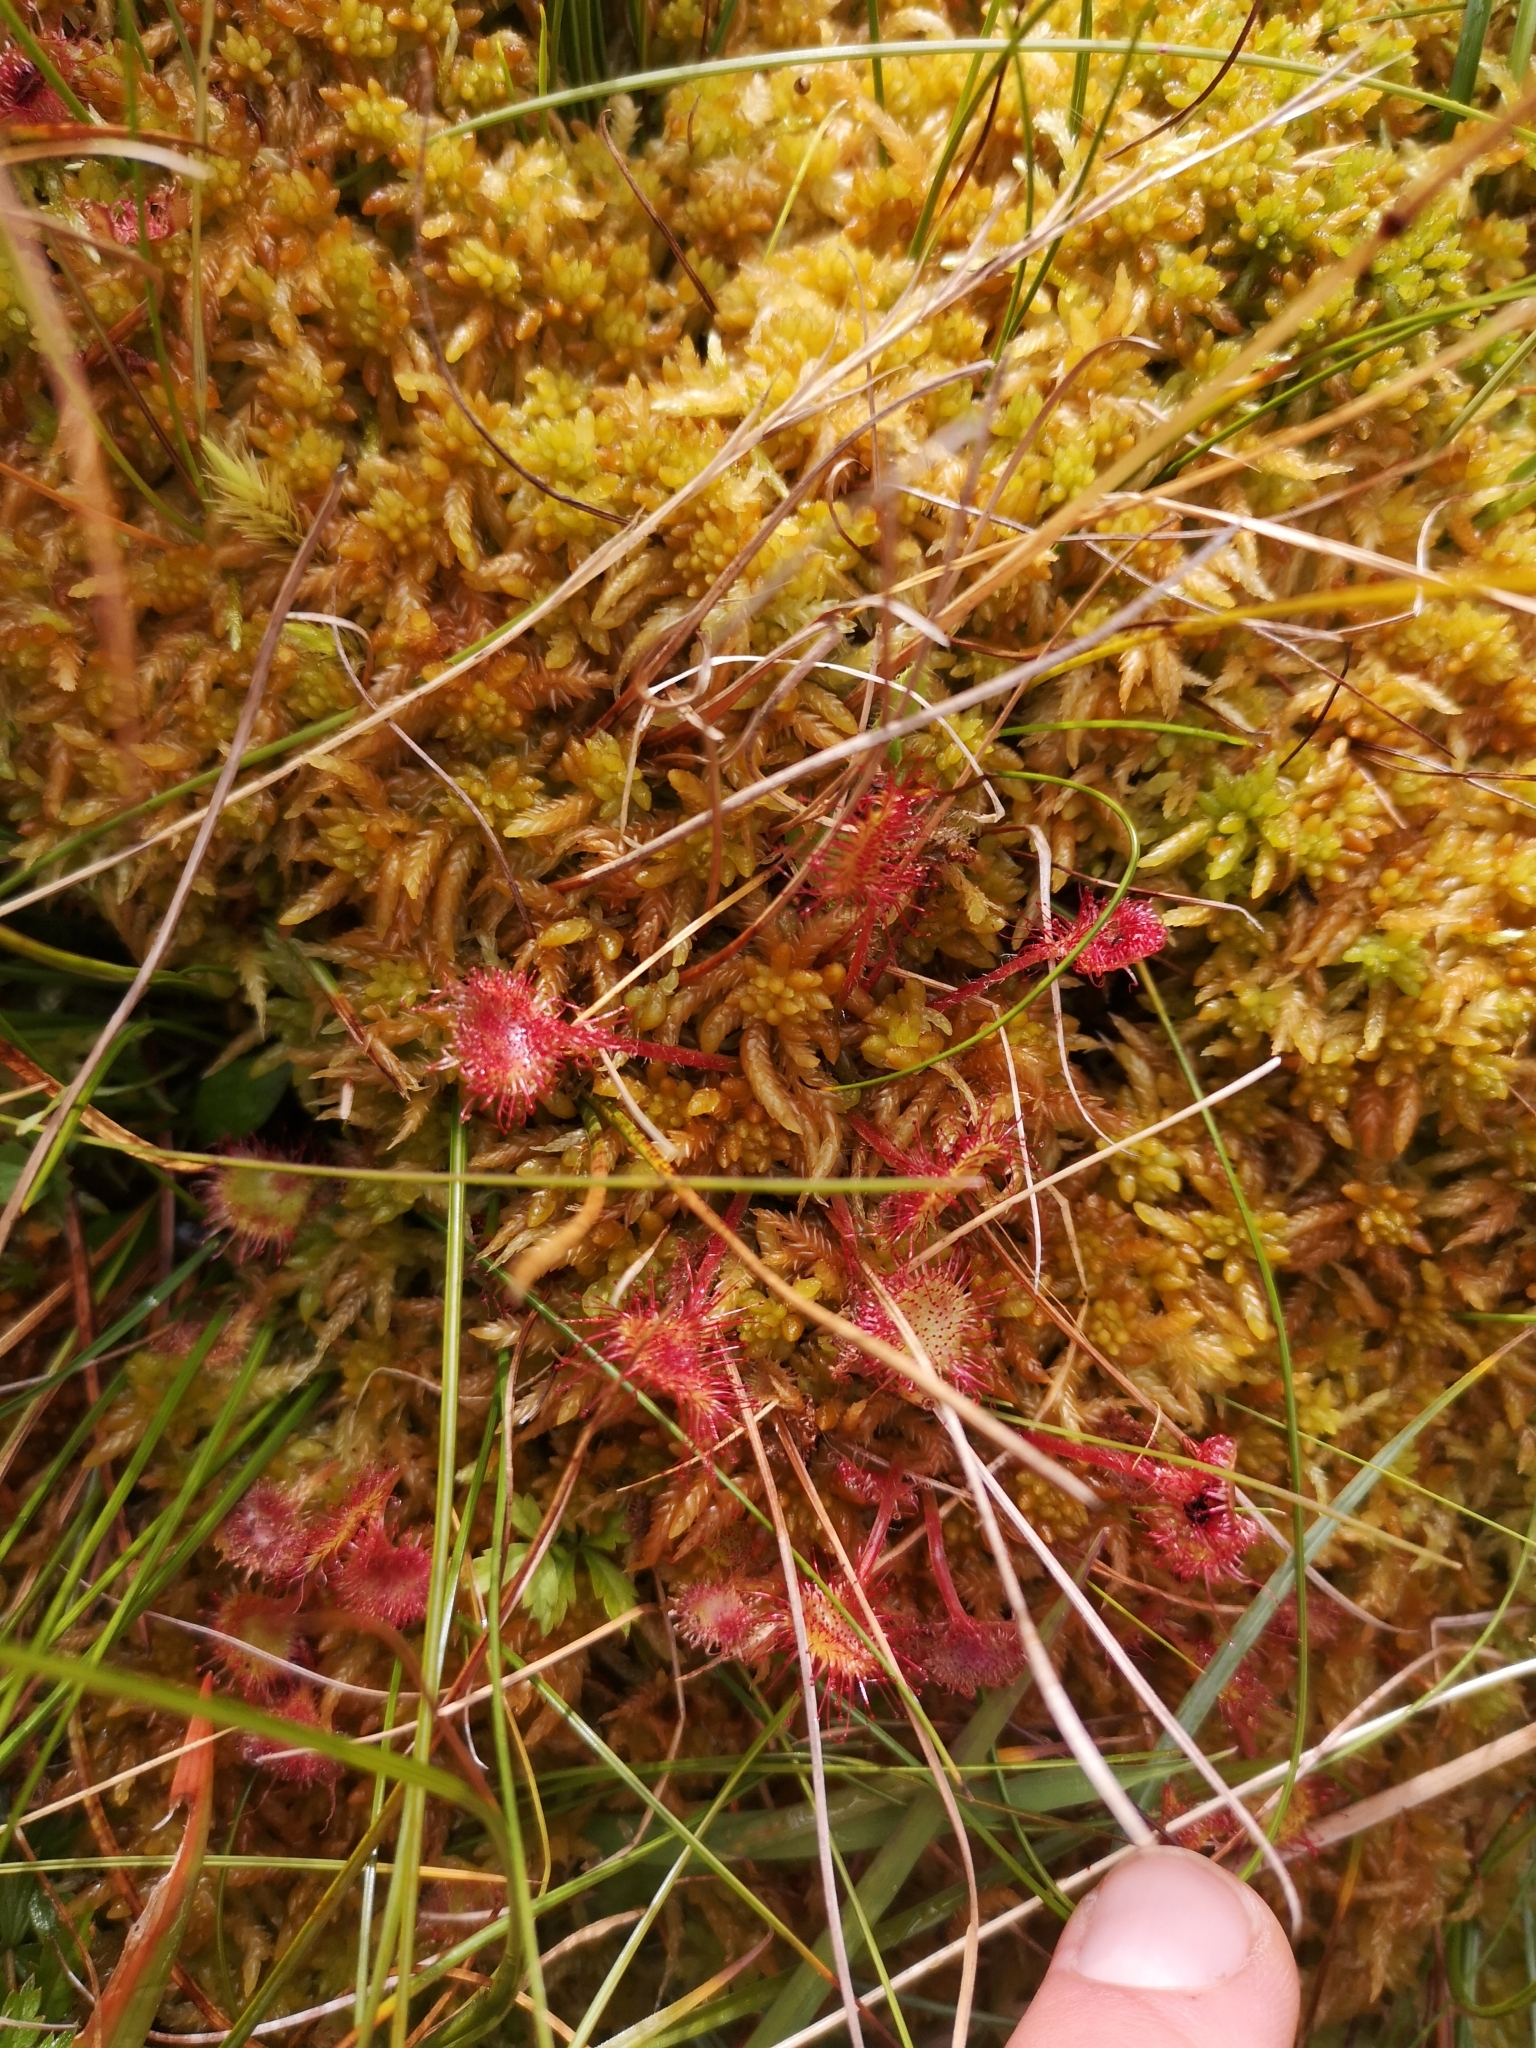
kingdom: Plantae
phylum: Tracheophyta
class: Magnoliopsida
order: Caryophyllales
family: Droseraceae
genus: Drosera
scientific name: Drosera rotundifolia
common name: Round-leaved sundew
